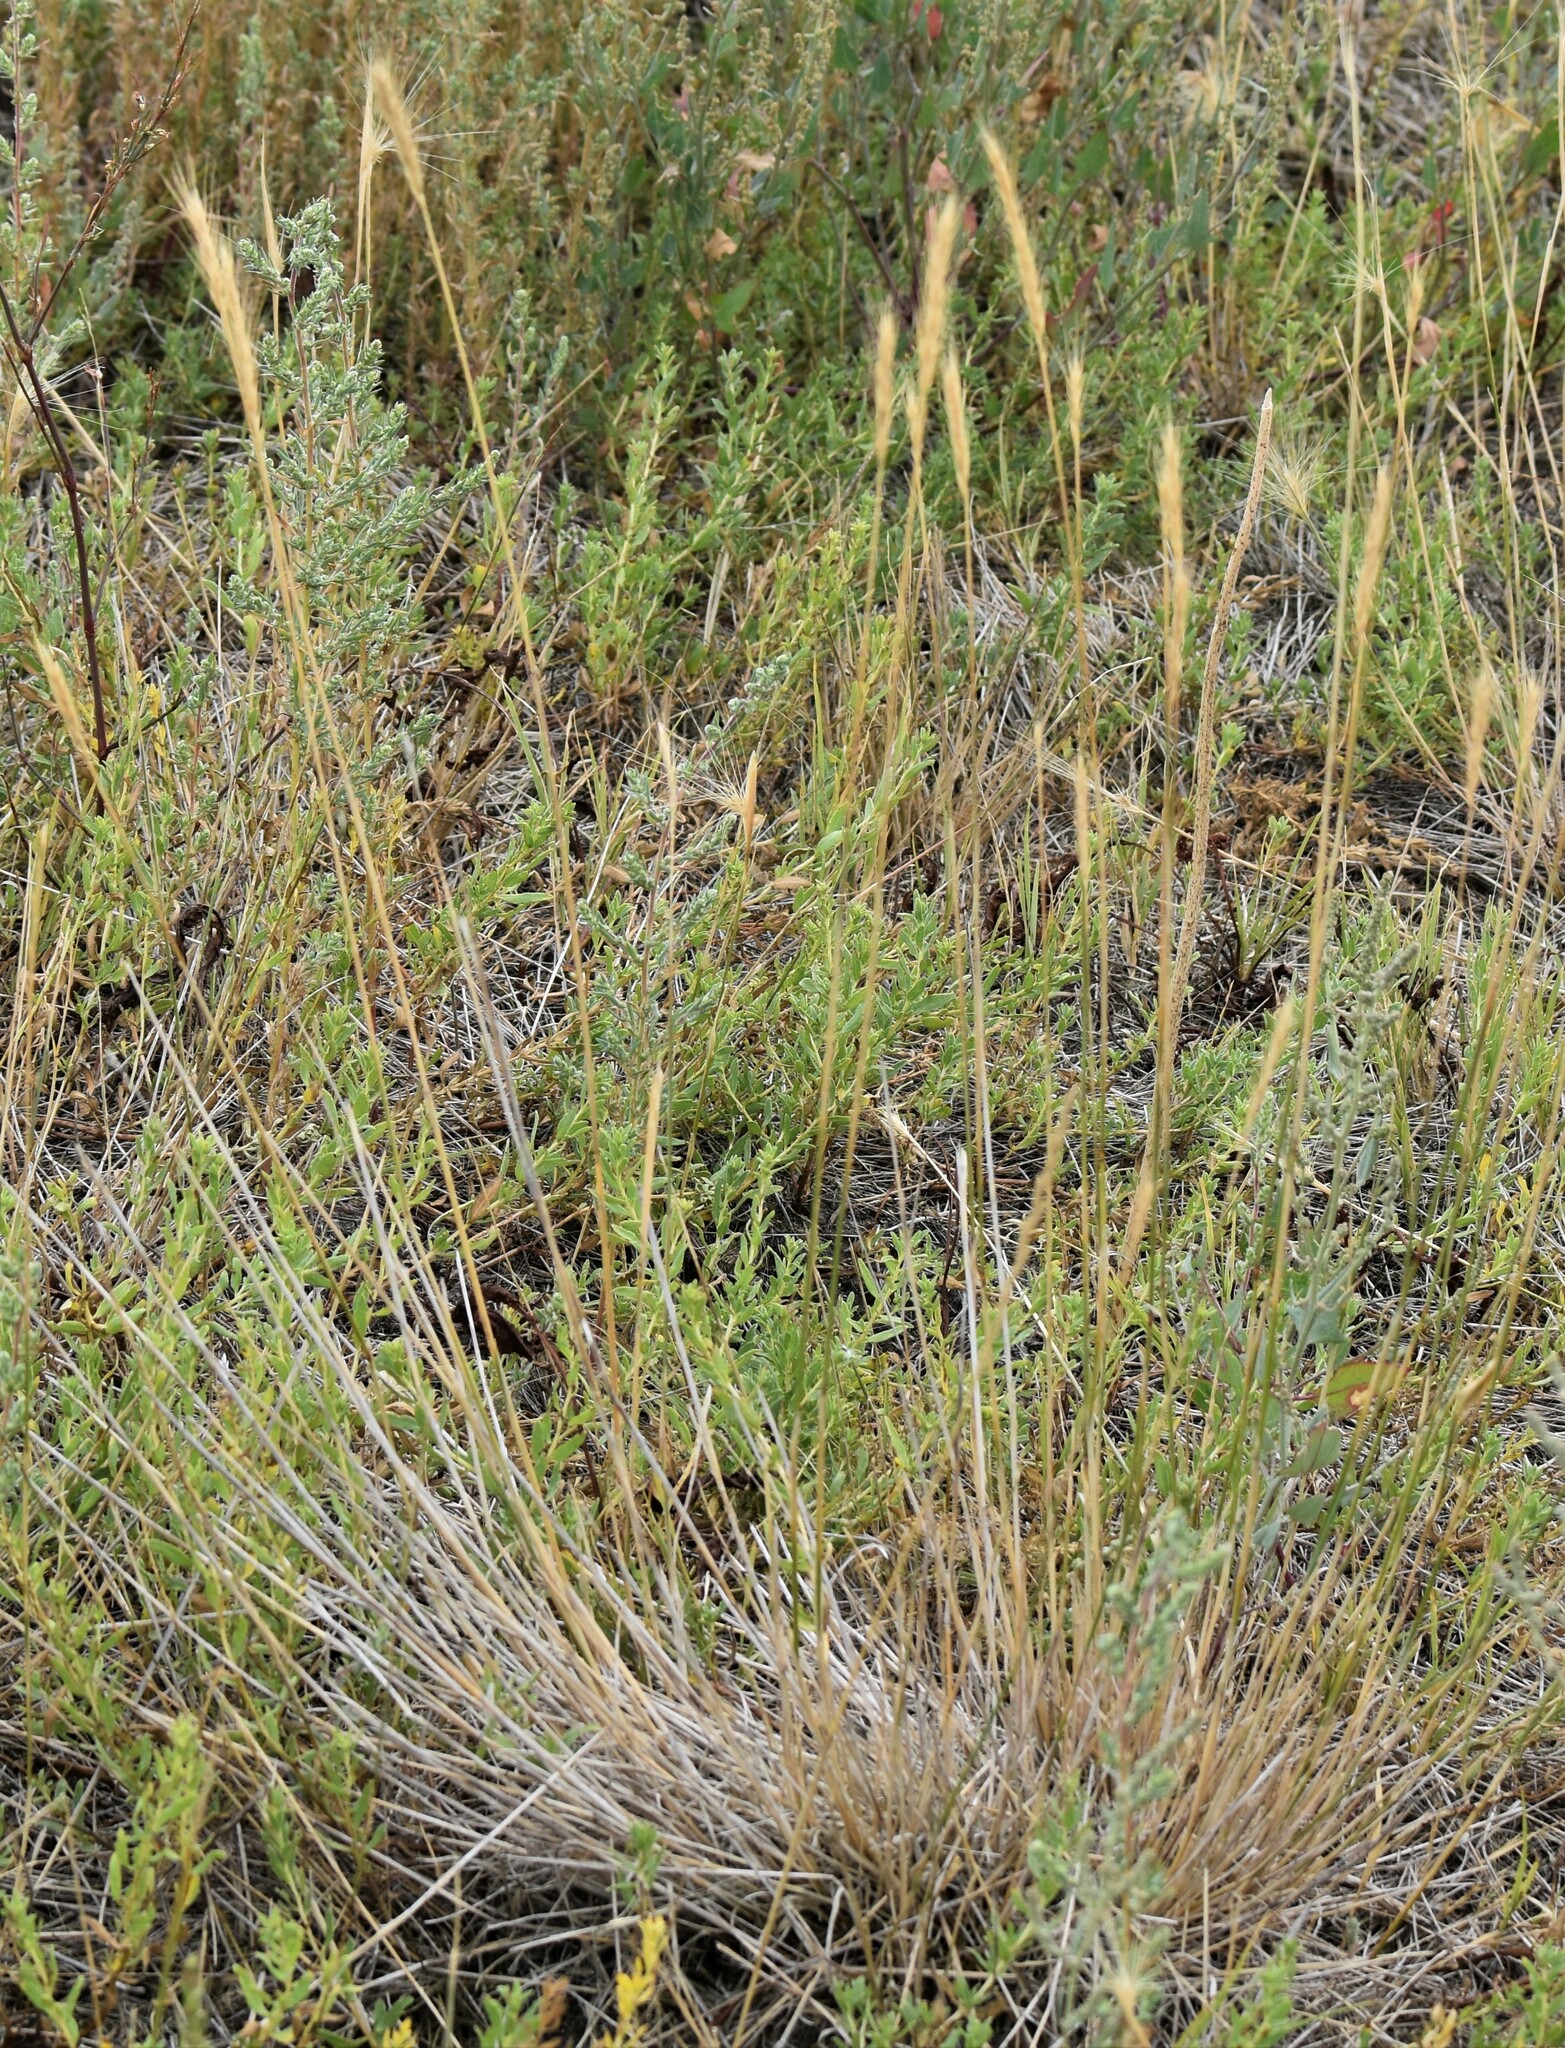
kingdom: Plantae
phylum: Tracheophyta
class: Liliopsida
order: Poales
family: Poaceae
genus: Elyhordeum
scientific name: Elyhordeum macounii
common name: Macoun's barley
